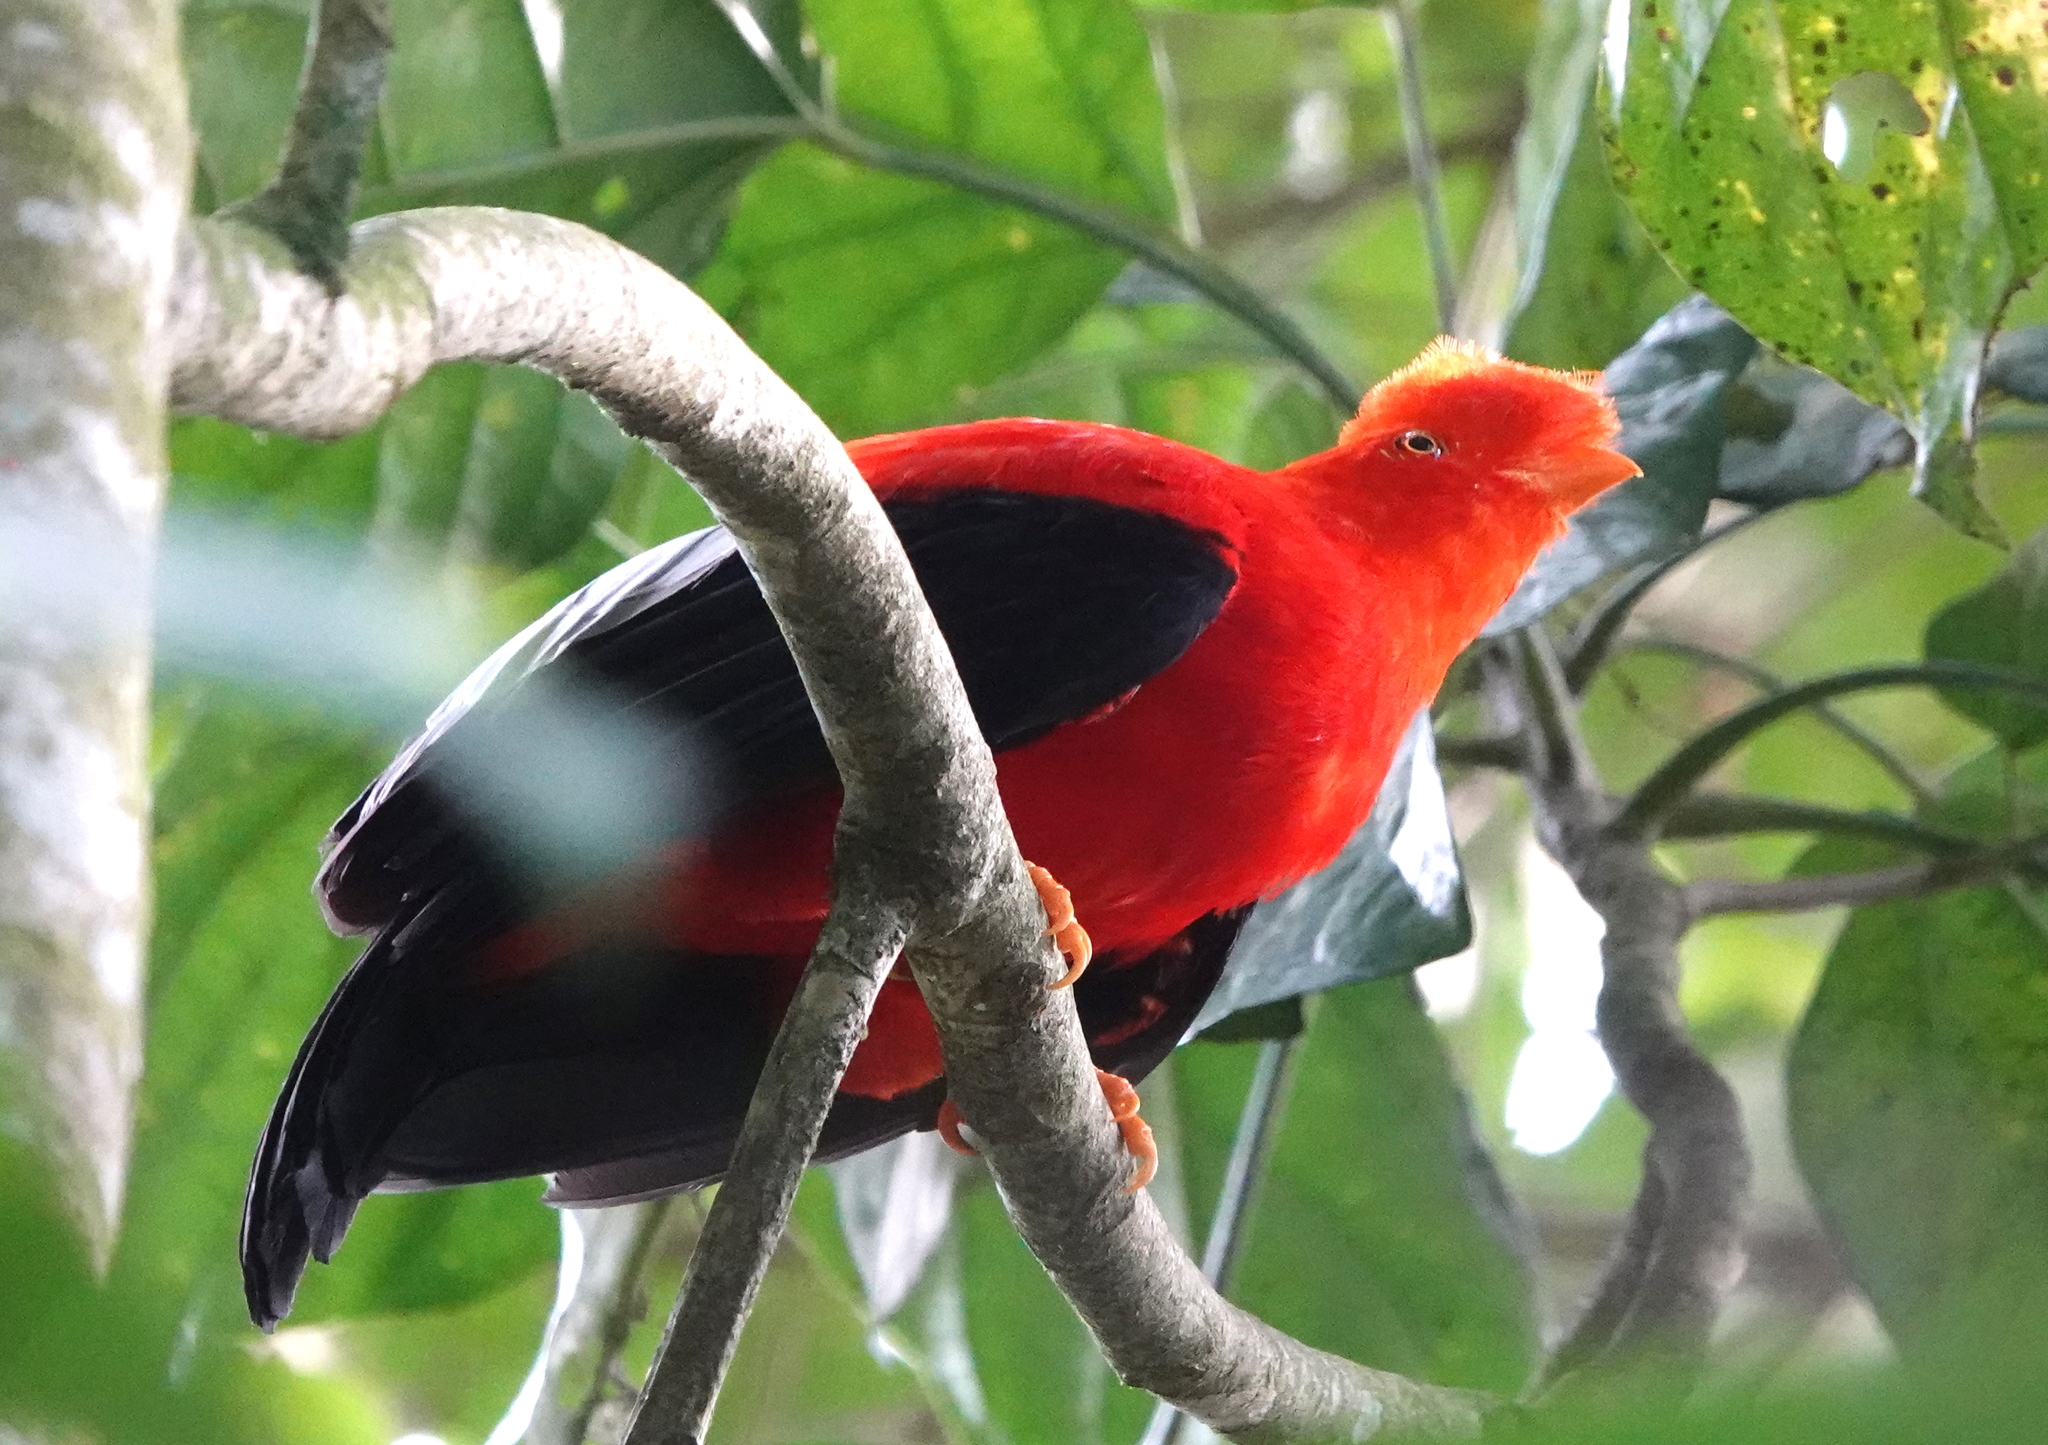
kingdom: Animalia
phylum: Chordata
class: Aves
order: Passeriformes
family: Cotingidae
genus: Rupicola
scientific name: Rupicola peruvianus
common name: Andean cock-of-the-rock
